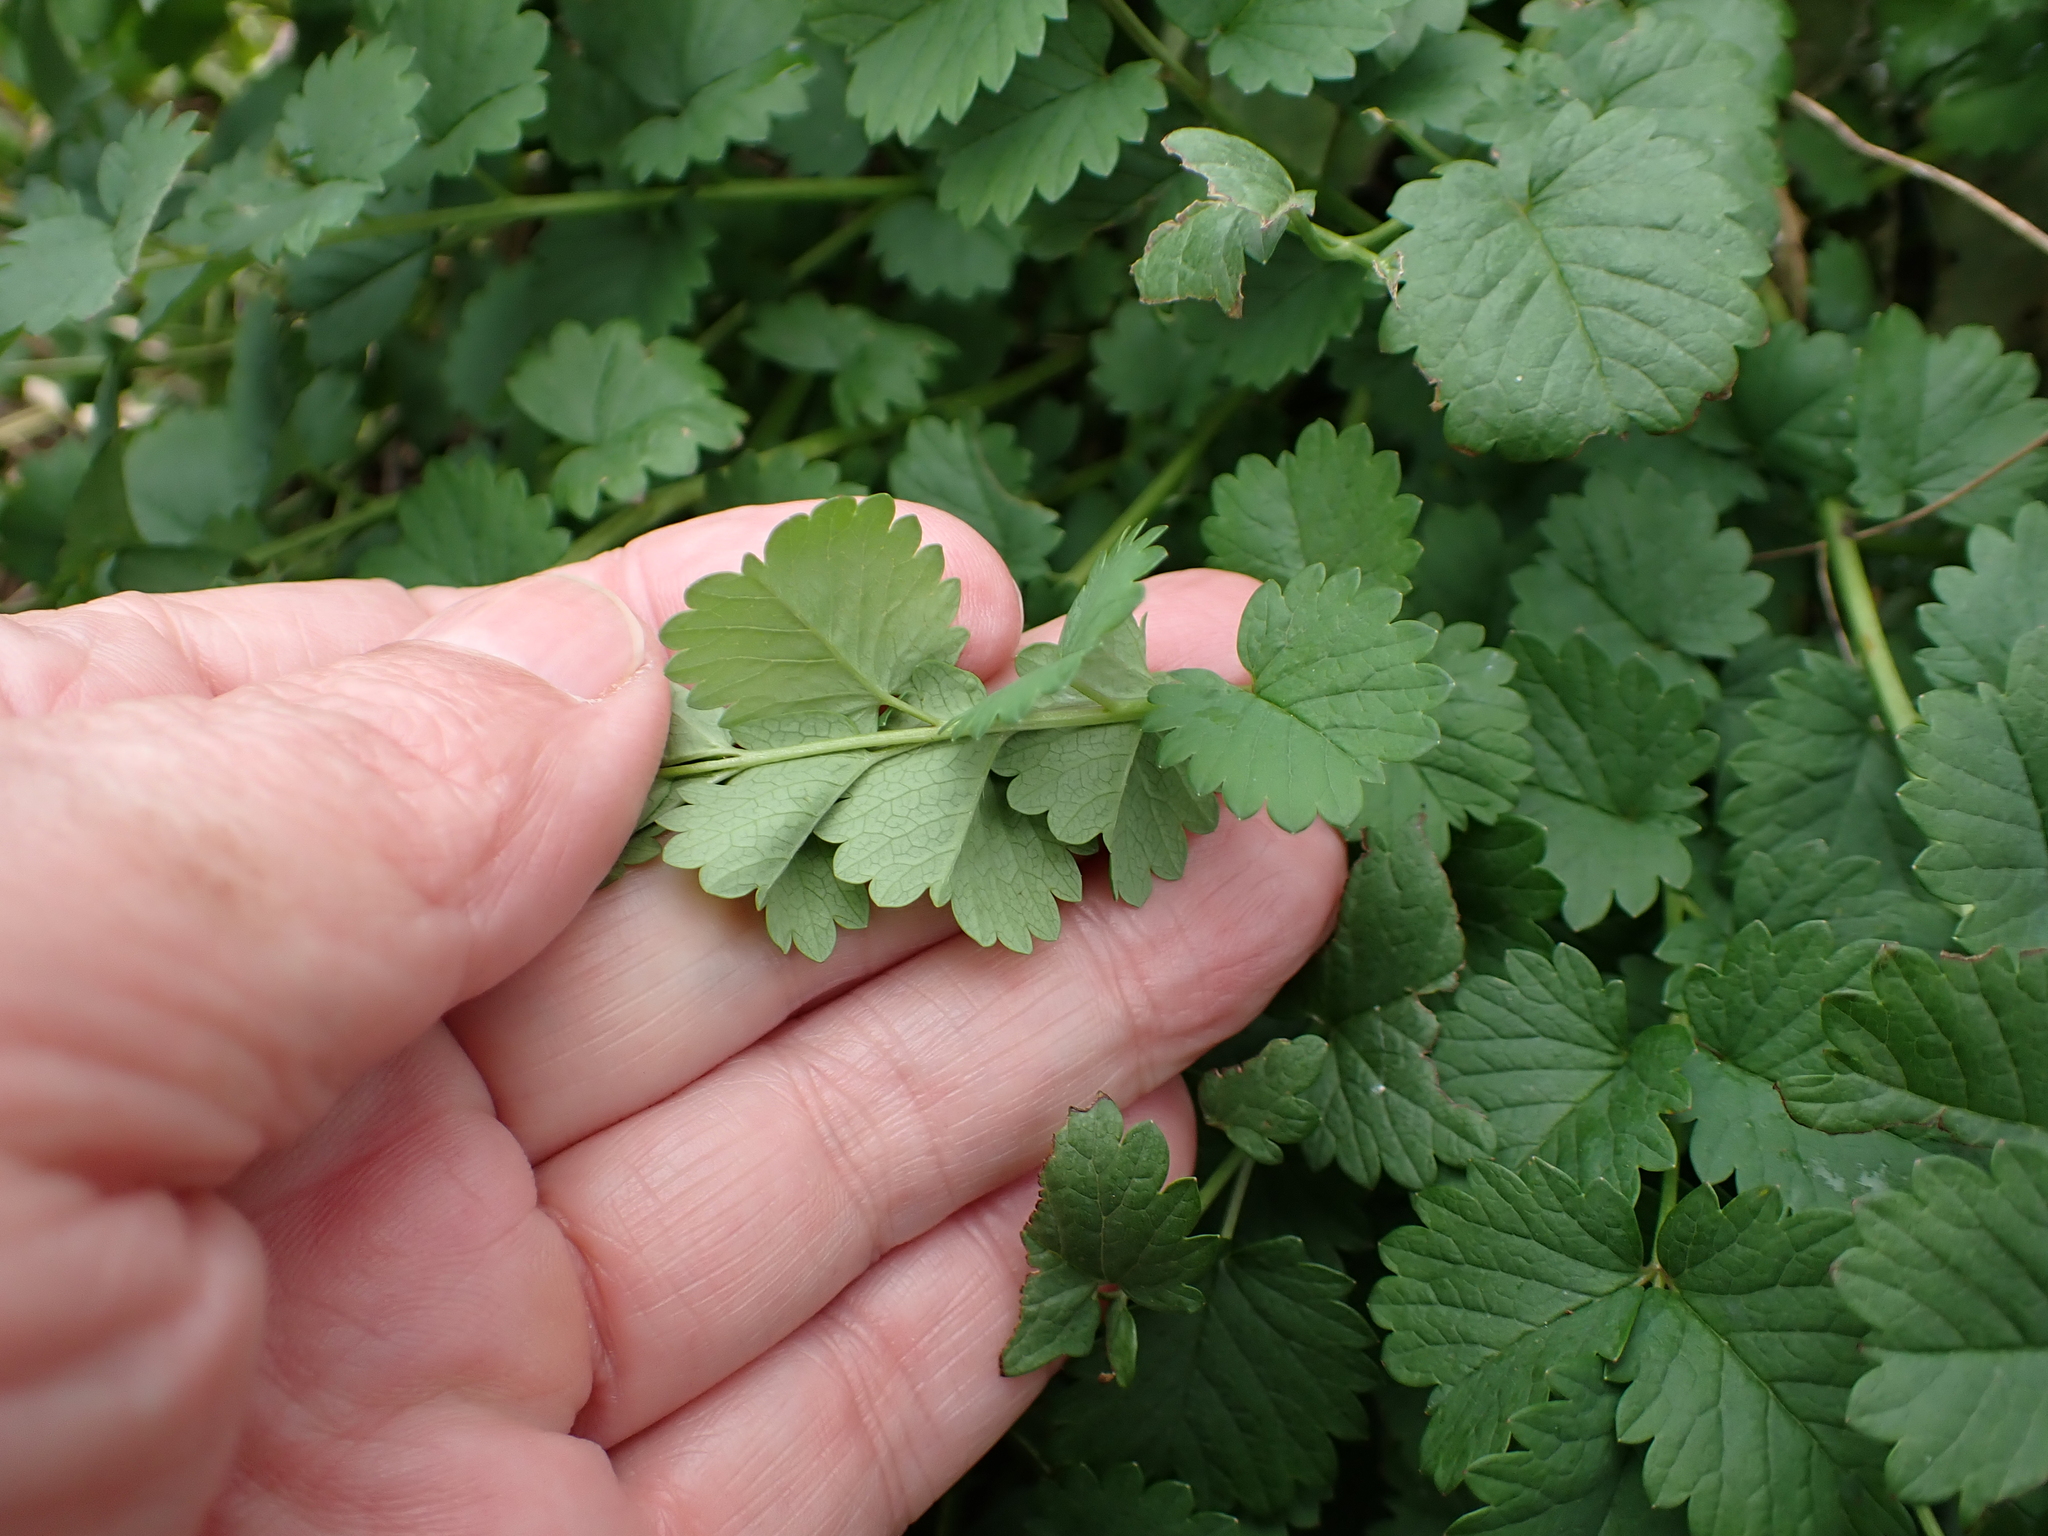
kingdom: Plantae
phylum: Tracheophyta
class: Magnoliopsida
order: Rosales
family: Rosaceae
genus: Poterium
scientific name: Poterium sanguisorba
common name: Salad burnet
